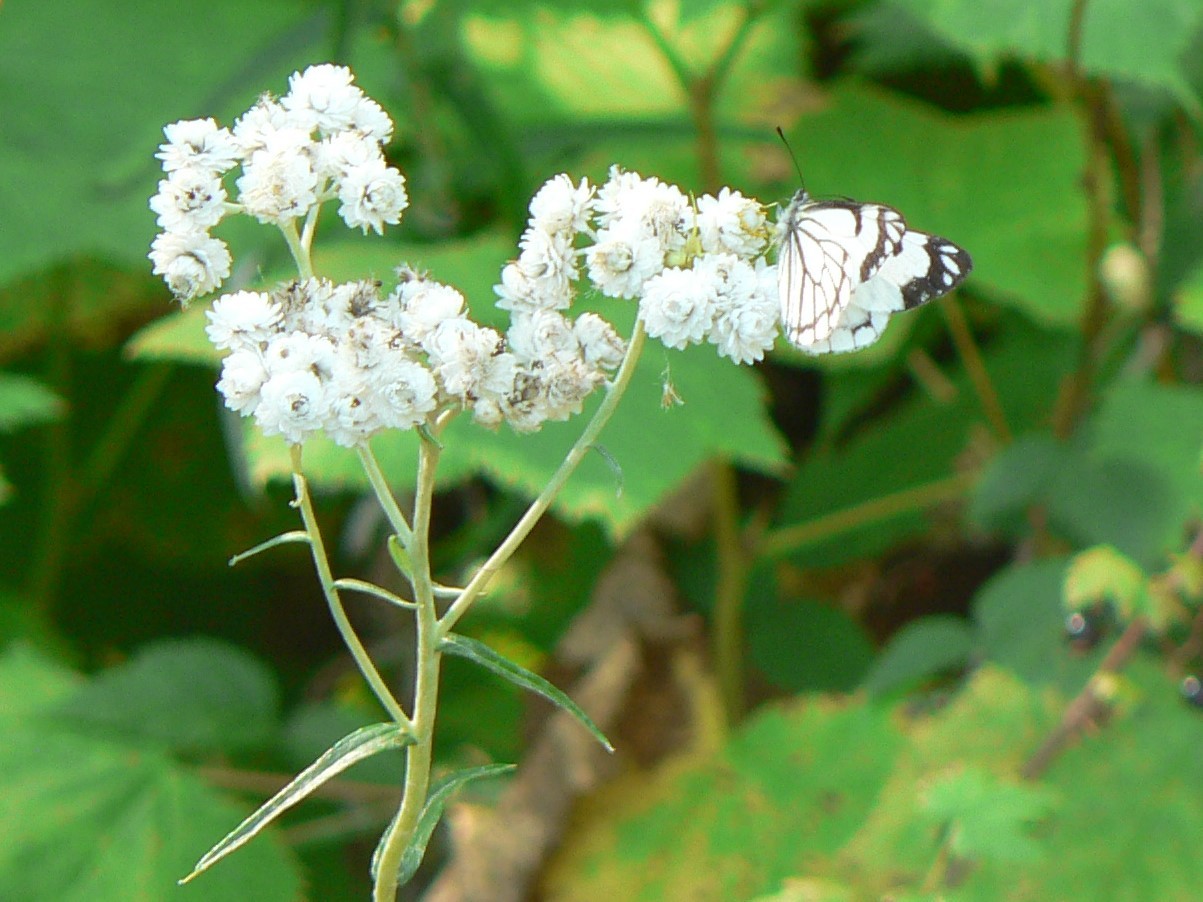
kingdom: Plantae
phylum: Tracheophyta
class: Magnoliopsida
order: Asterales
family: Asteraceae
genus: Anaphalis
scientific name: Anaphalis margaritacea
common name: Pearly everlasting
